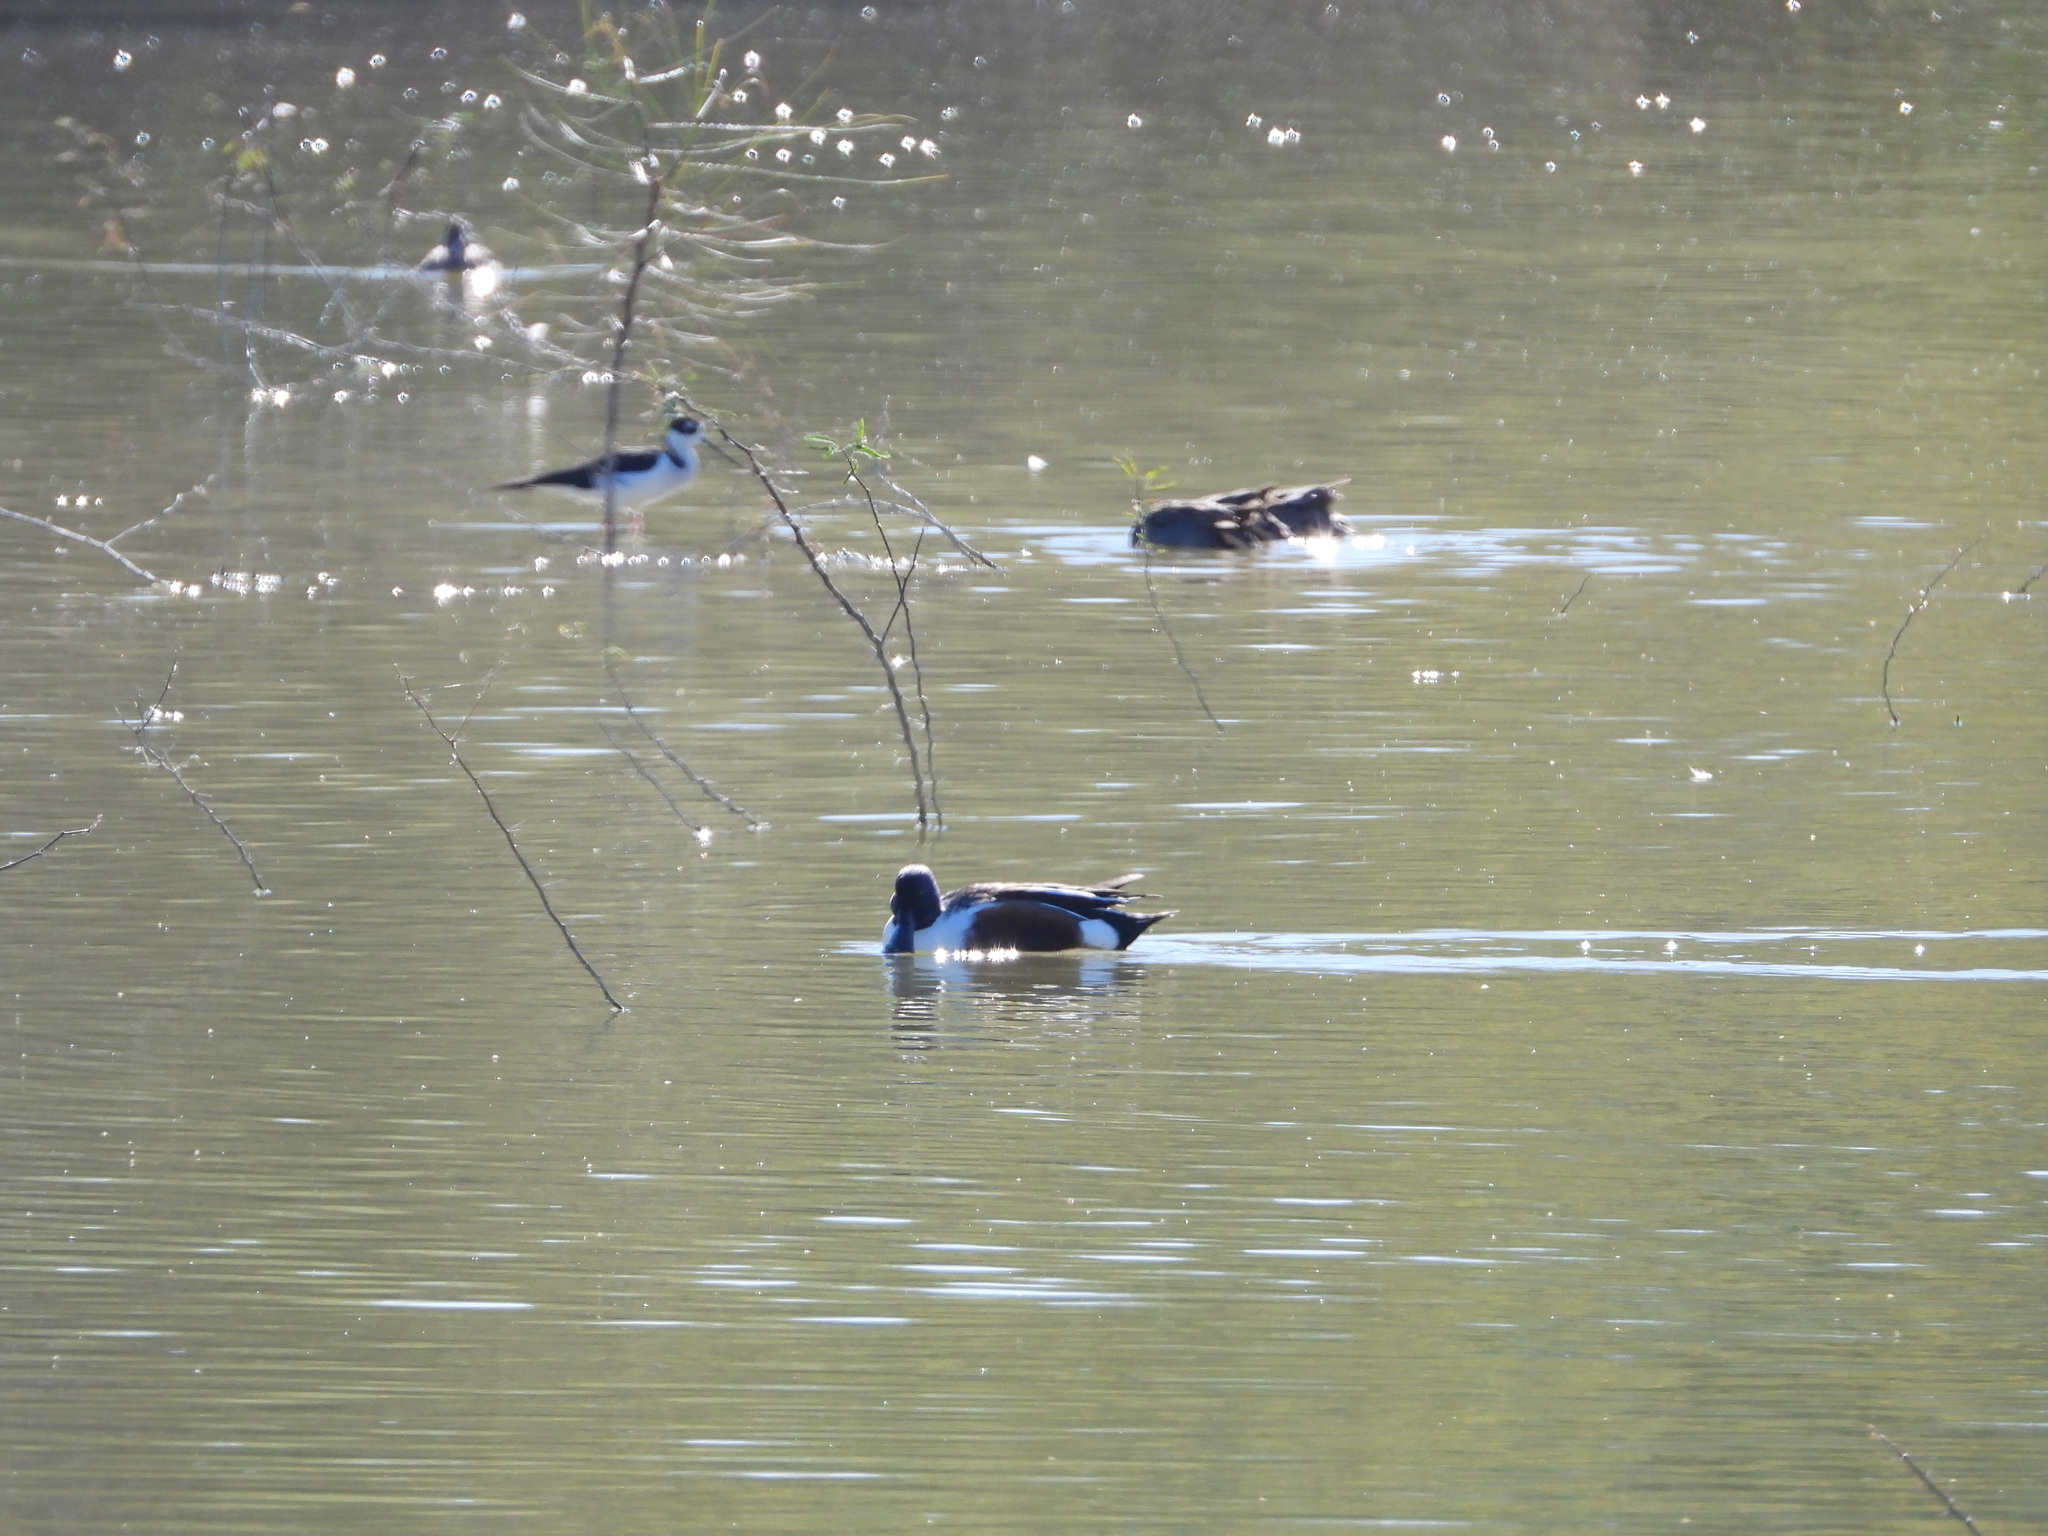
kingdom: Animalia
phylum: Chordata
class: Aves
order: Anseriformes
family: Anatidae
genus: Spatula
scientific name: Spatula clypeata
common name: Northern shoveler
